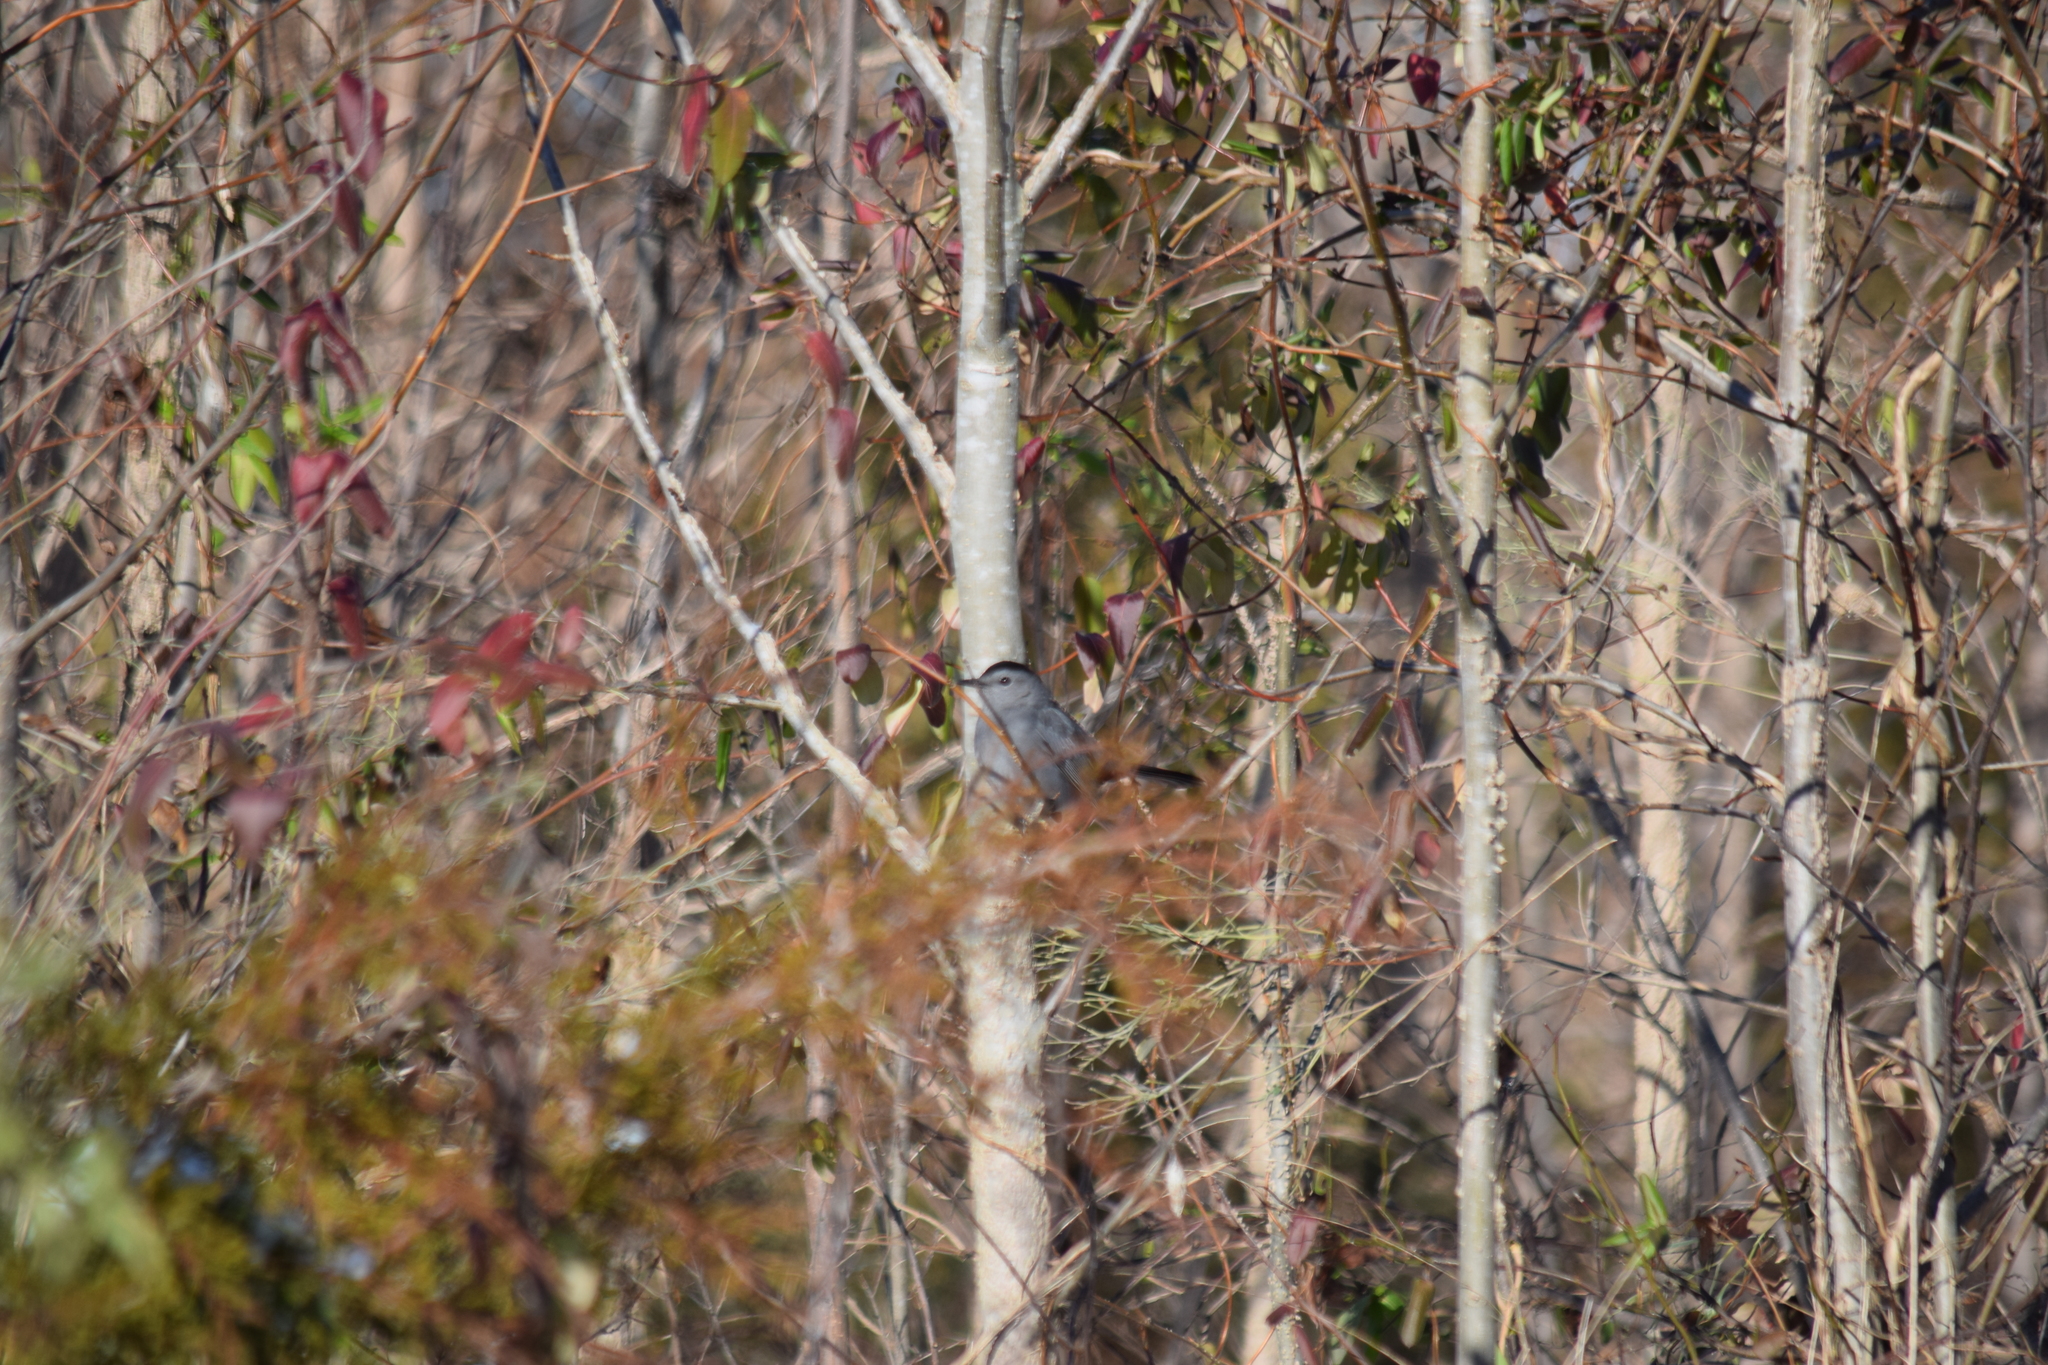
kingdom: Animalia
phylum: Chordata
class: Aves
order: Passeriformes
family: Mimidae
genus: Dumetella
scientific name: Dumetella carolinensis
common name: Gray catbird
